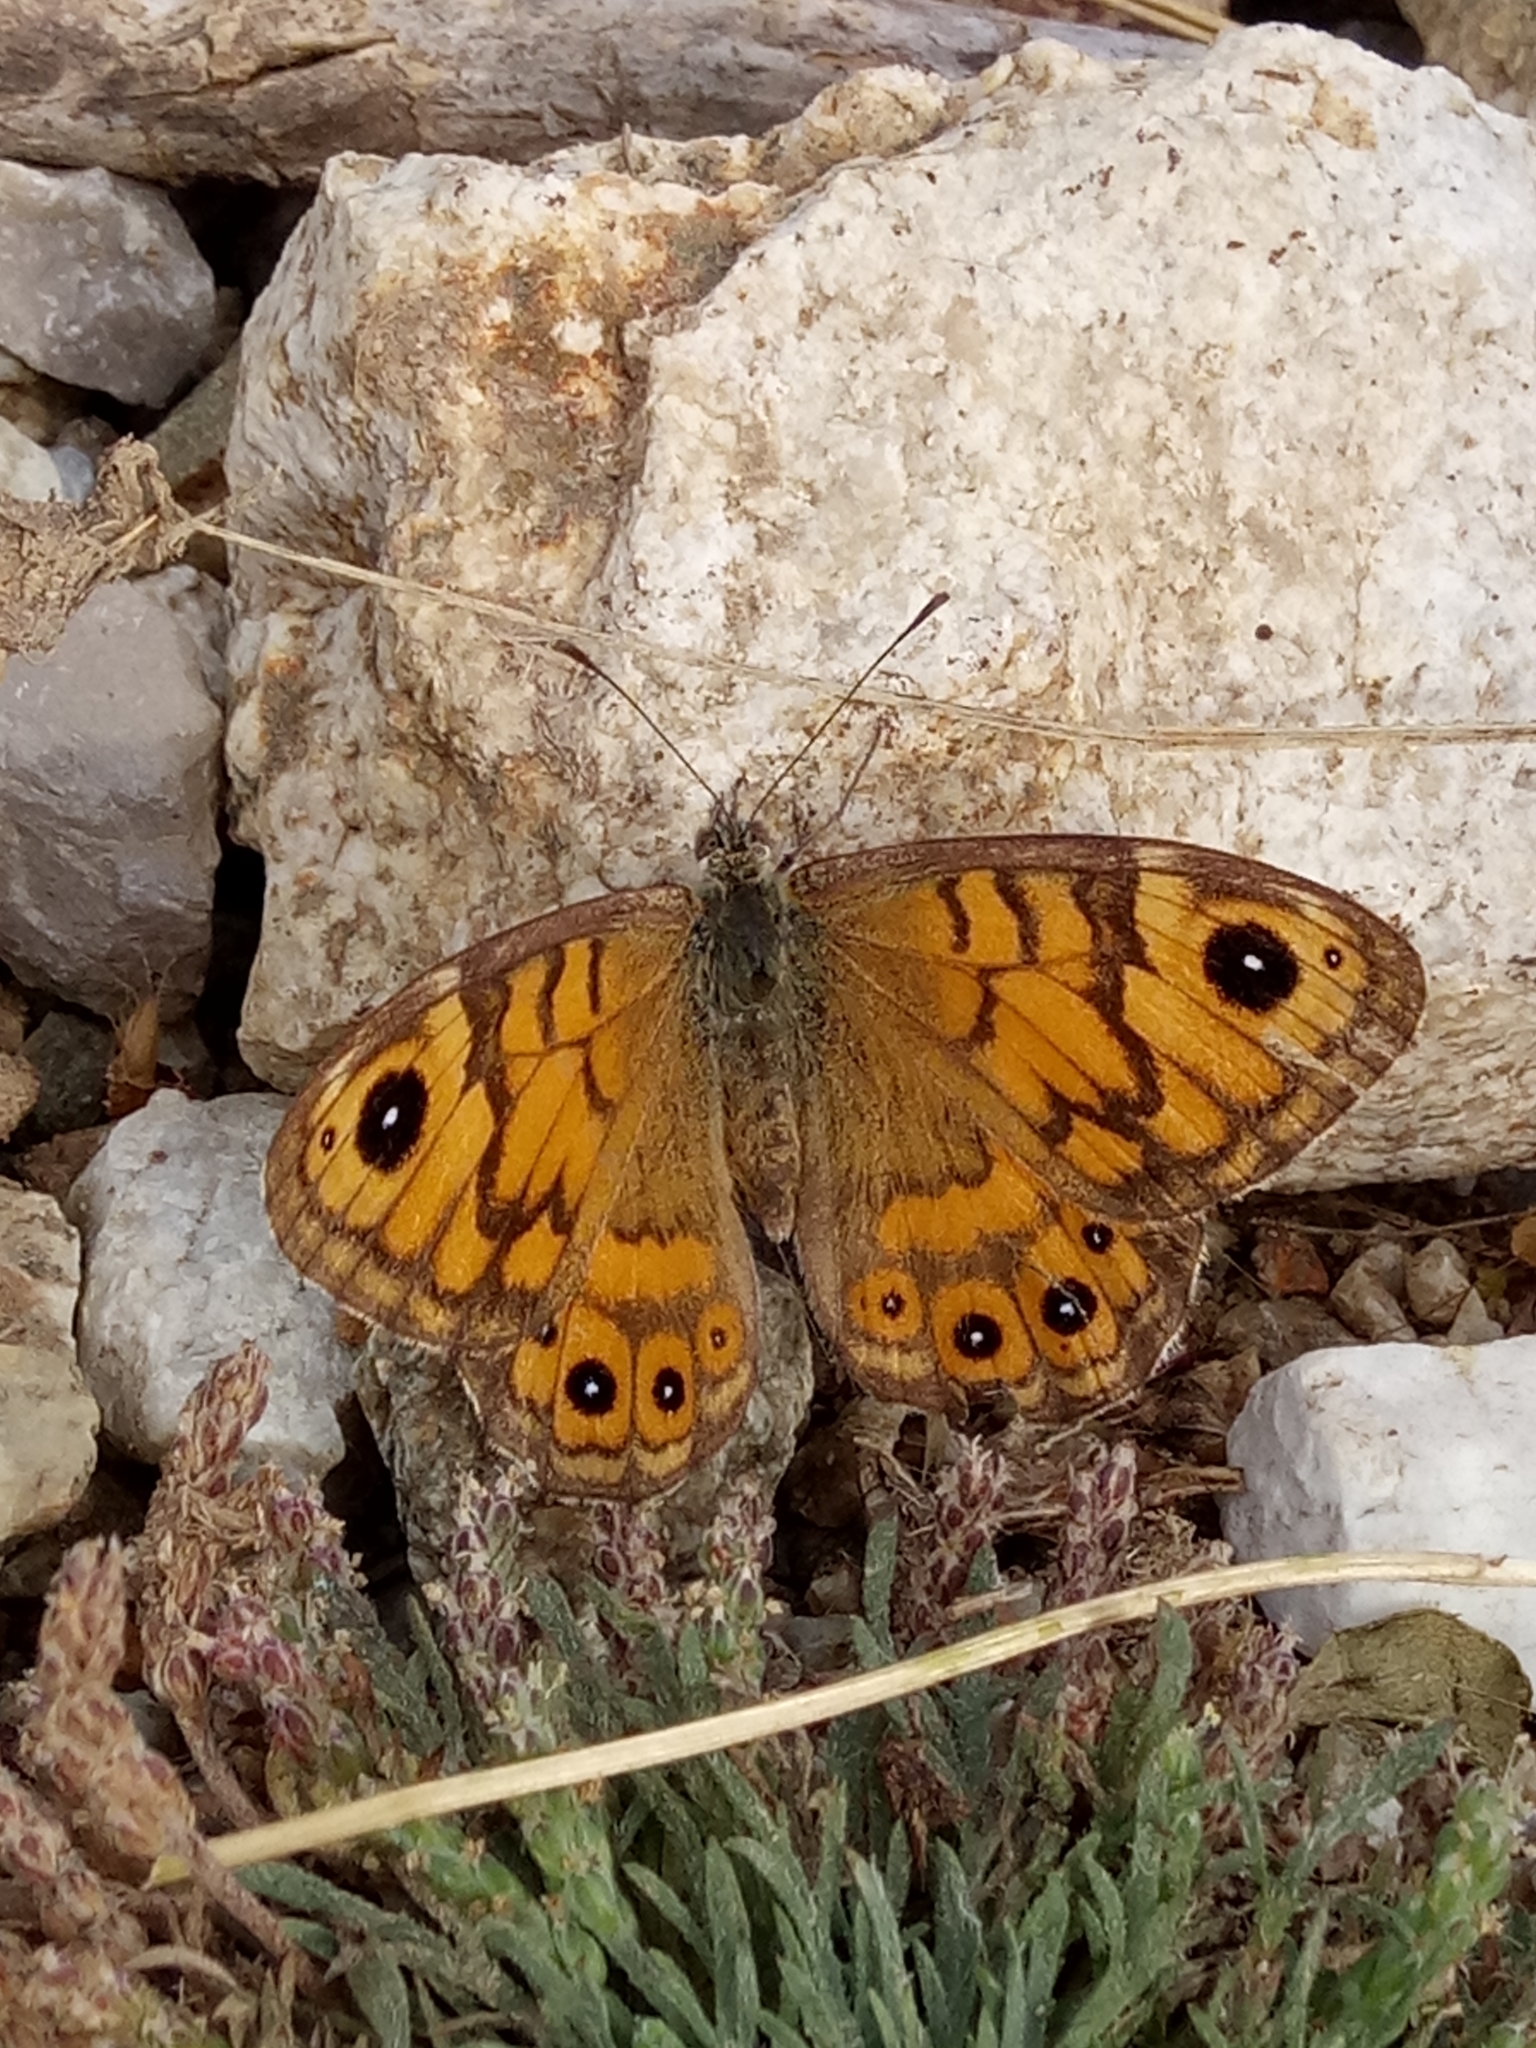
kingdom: Animalia
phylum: Arthropoda
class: Insecta
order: Lepidoptera
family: Nymphalidae
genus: Pararge
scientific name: Pararge Lasiommata megera
